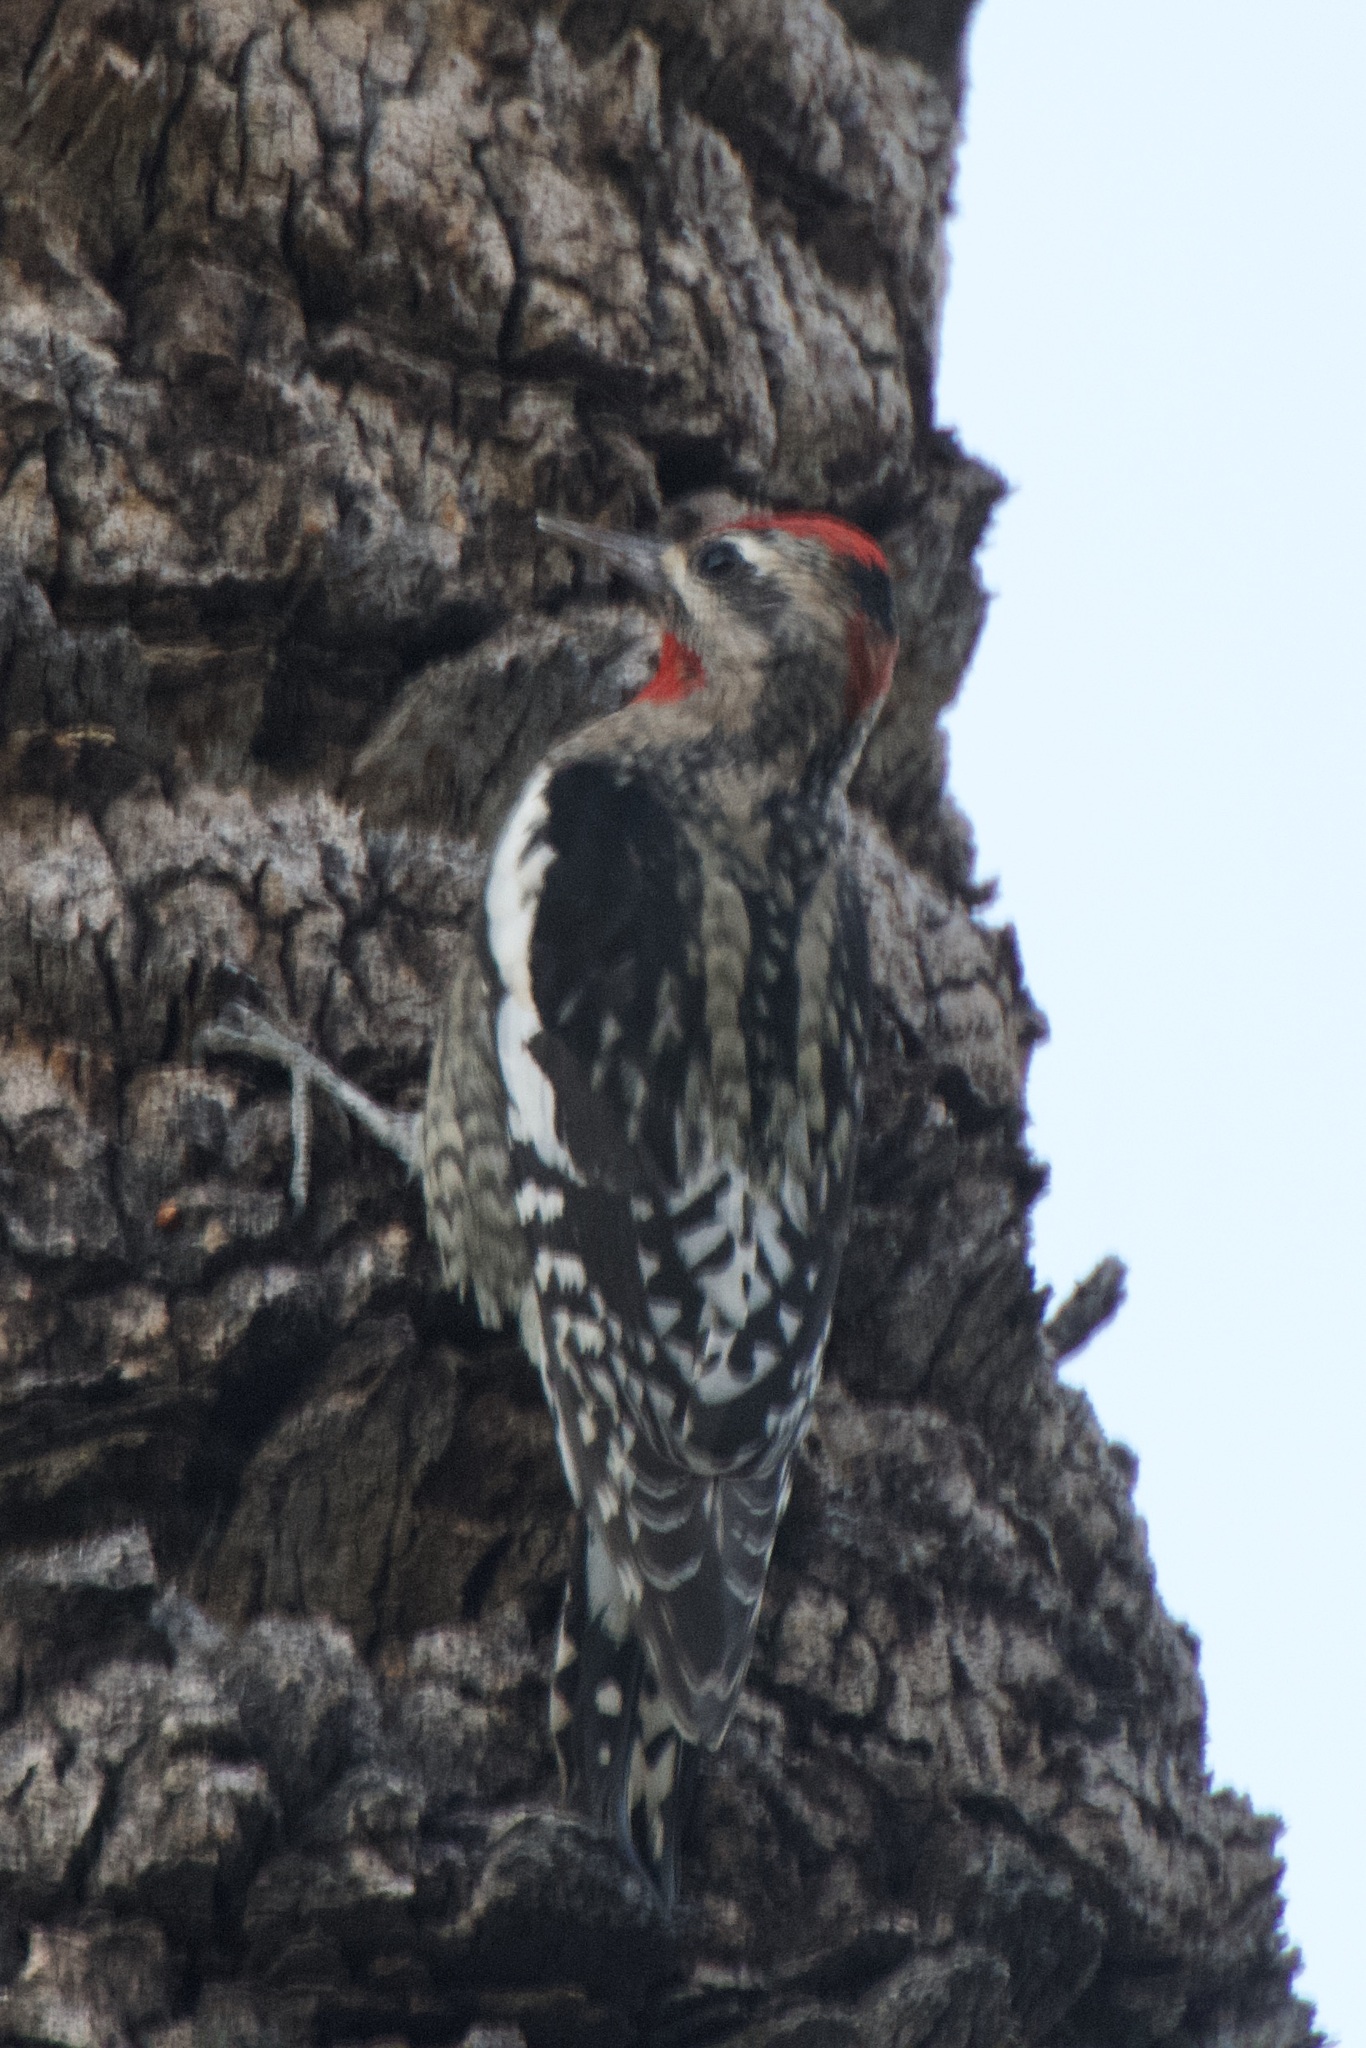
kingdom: Animalia
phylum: Chordata
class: Aves
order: Piciformes
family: Picidae
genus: Sphyrapicus
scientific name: Sphyrapicus nuchalis
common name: Red-naped sapsucker
